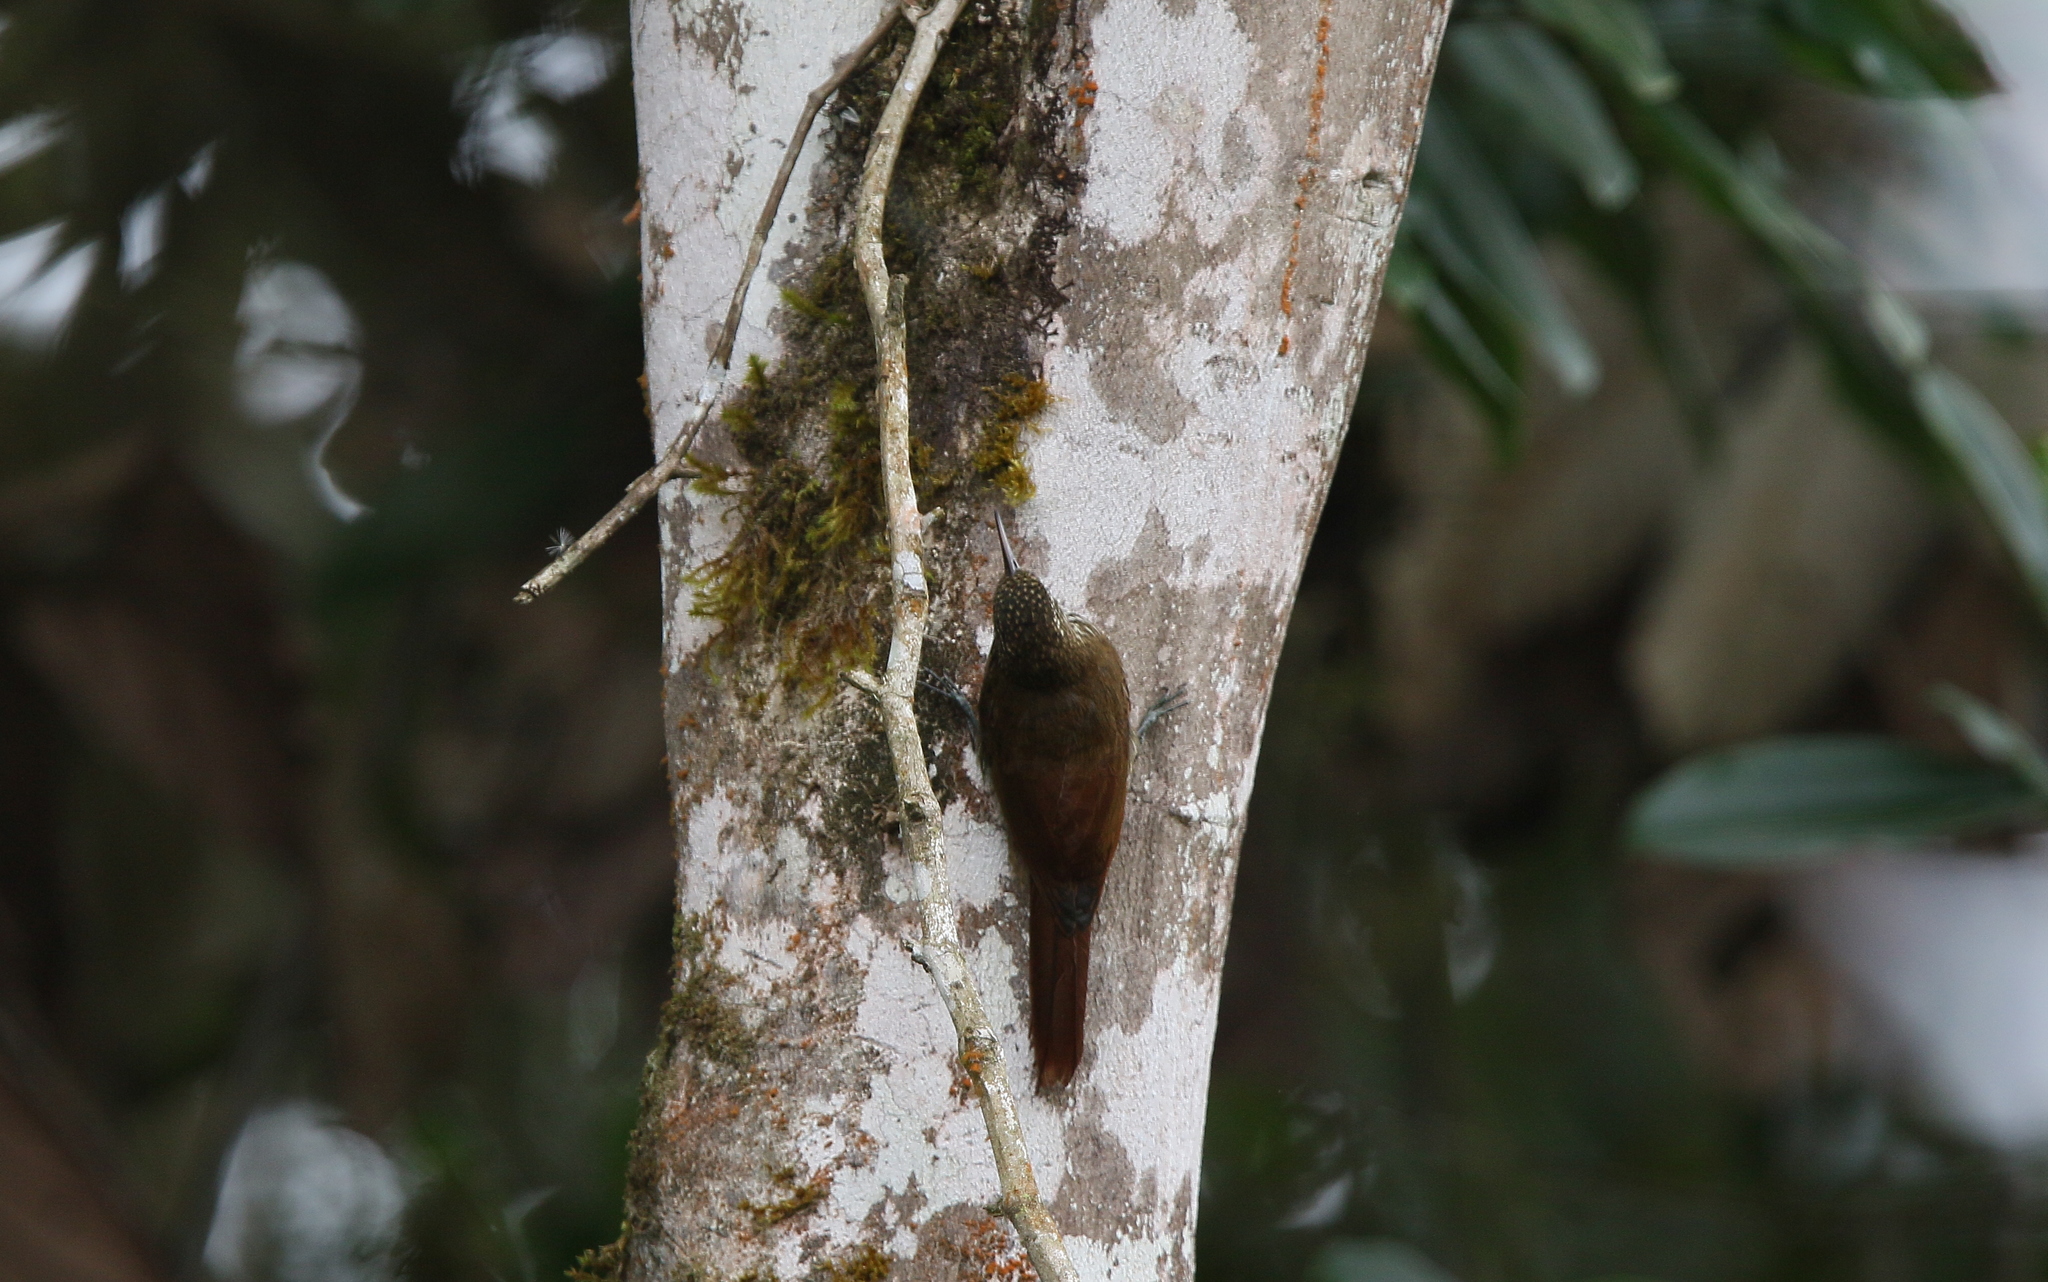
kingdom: Animalia
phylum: Chordata
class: Aves
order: Passeriformes
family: Furnariidae
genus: Lepidocolaptes
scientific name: Lepidocolaptes lacrymiger
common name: Montane woodcreeper
